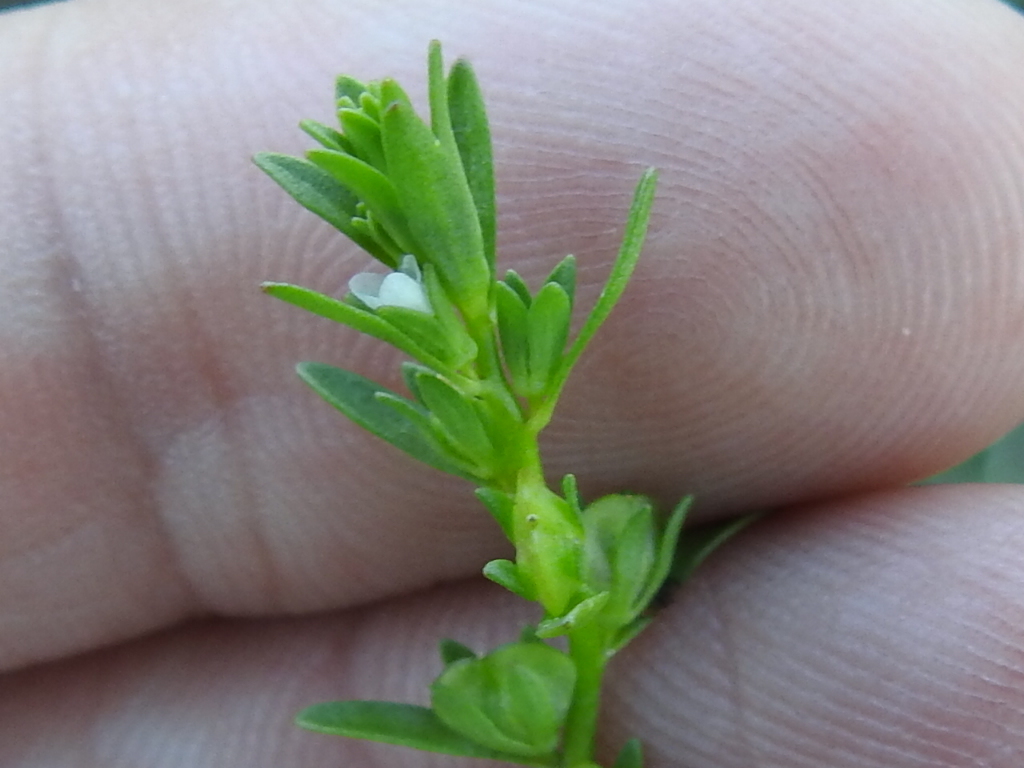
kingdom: Plantae
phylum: Tracheophyta
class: Magnoliopsida
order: Lamiales
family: Plantaginaceae
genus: Veronica
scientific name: Veronica peregrina
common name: Neckweed
